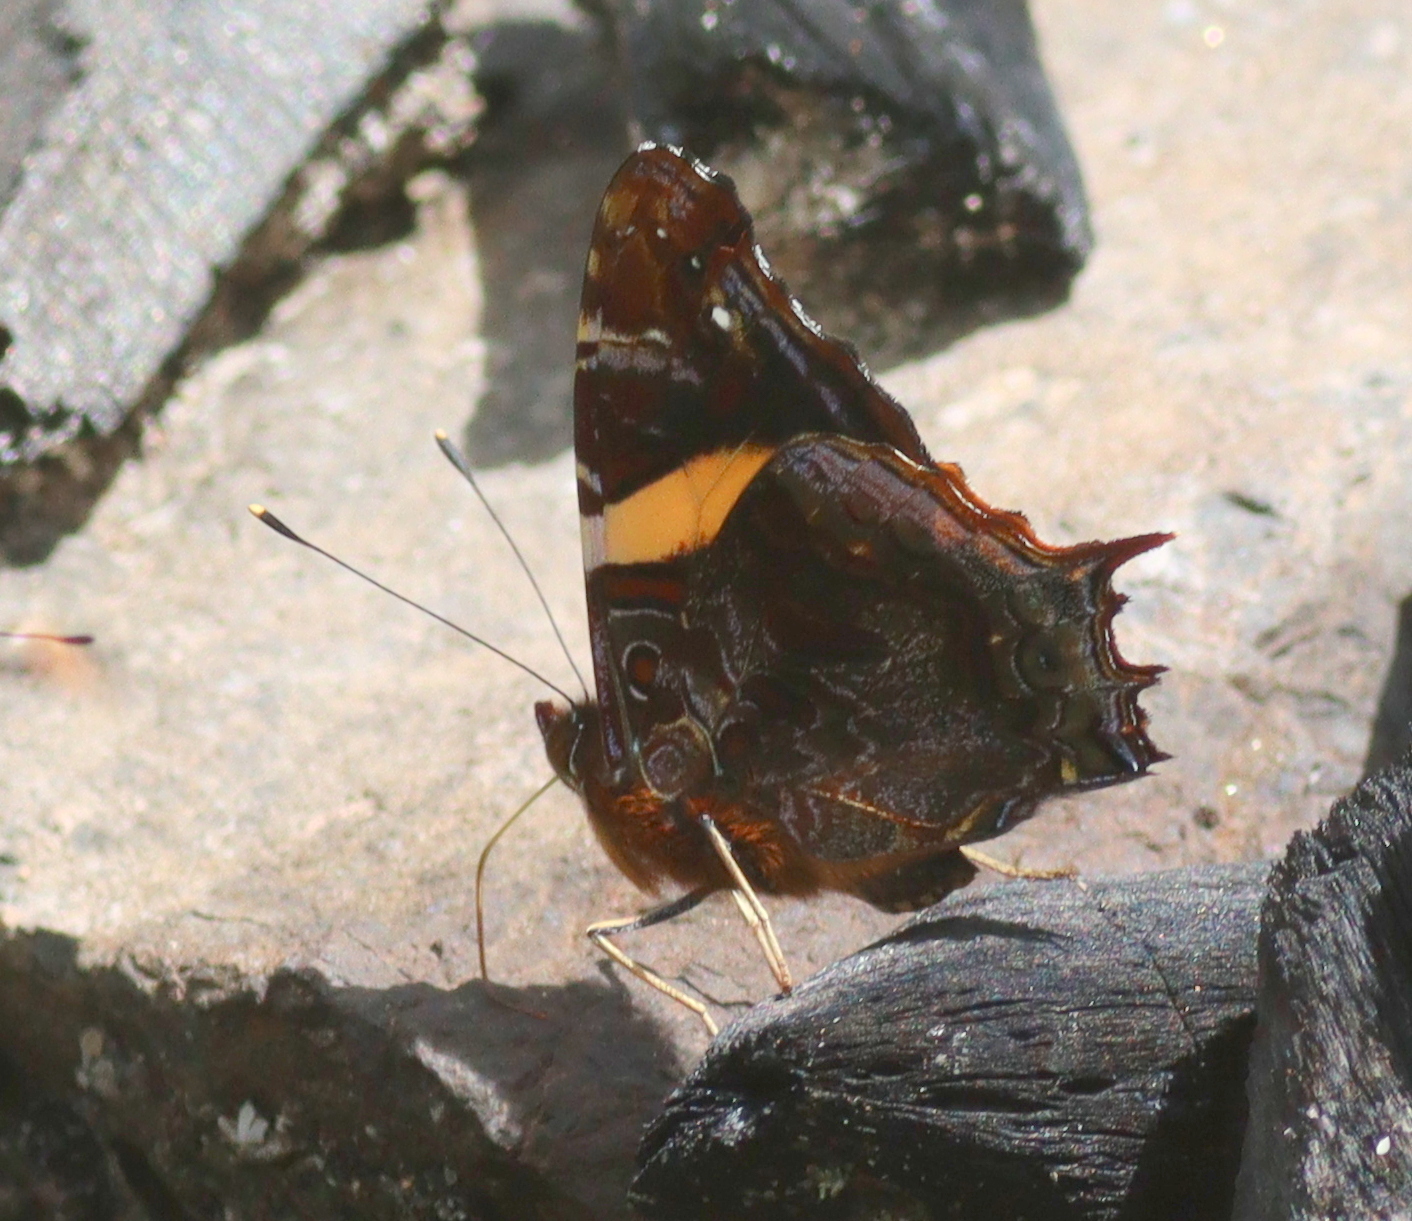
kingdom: Animalia
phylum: Arthropoda
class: Insecta
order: Lepidoptera
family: Nymphalidae
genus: Antanartia
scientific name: Antanartia schaeneia
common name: Long-tailed admiral
